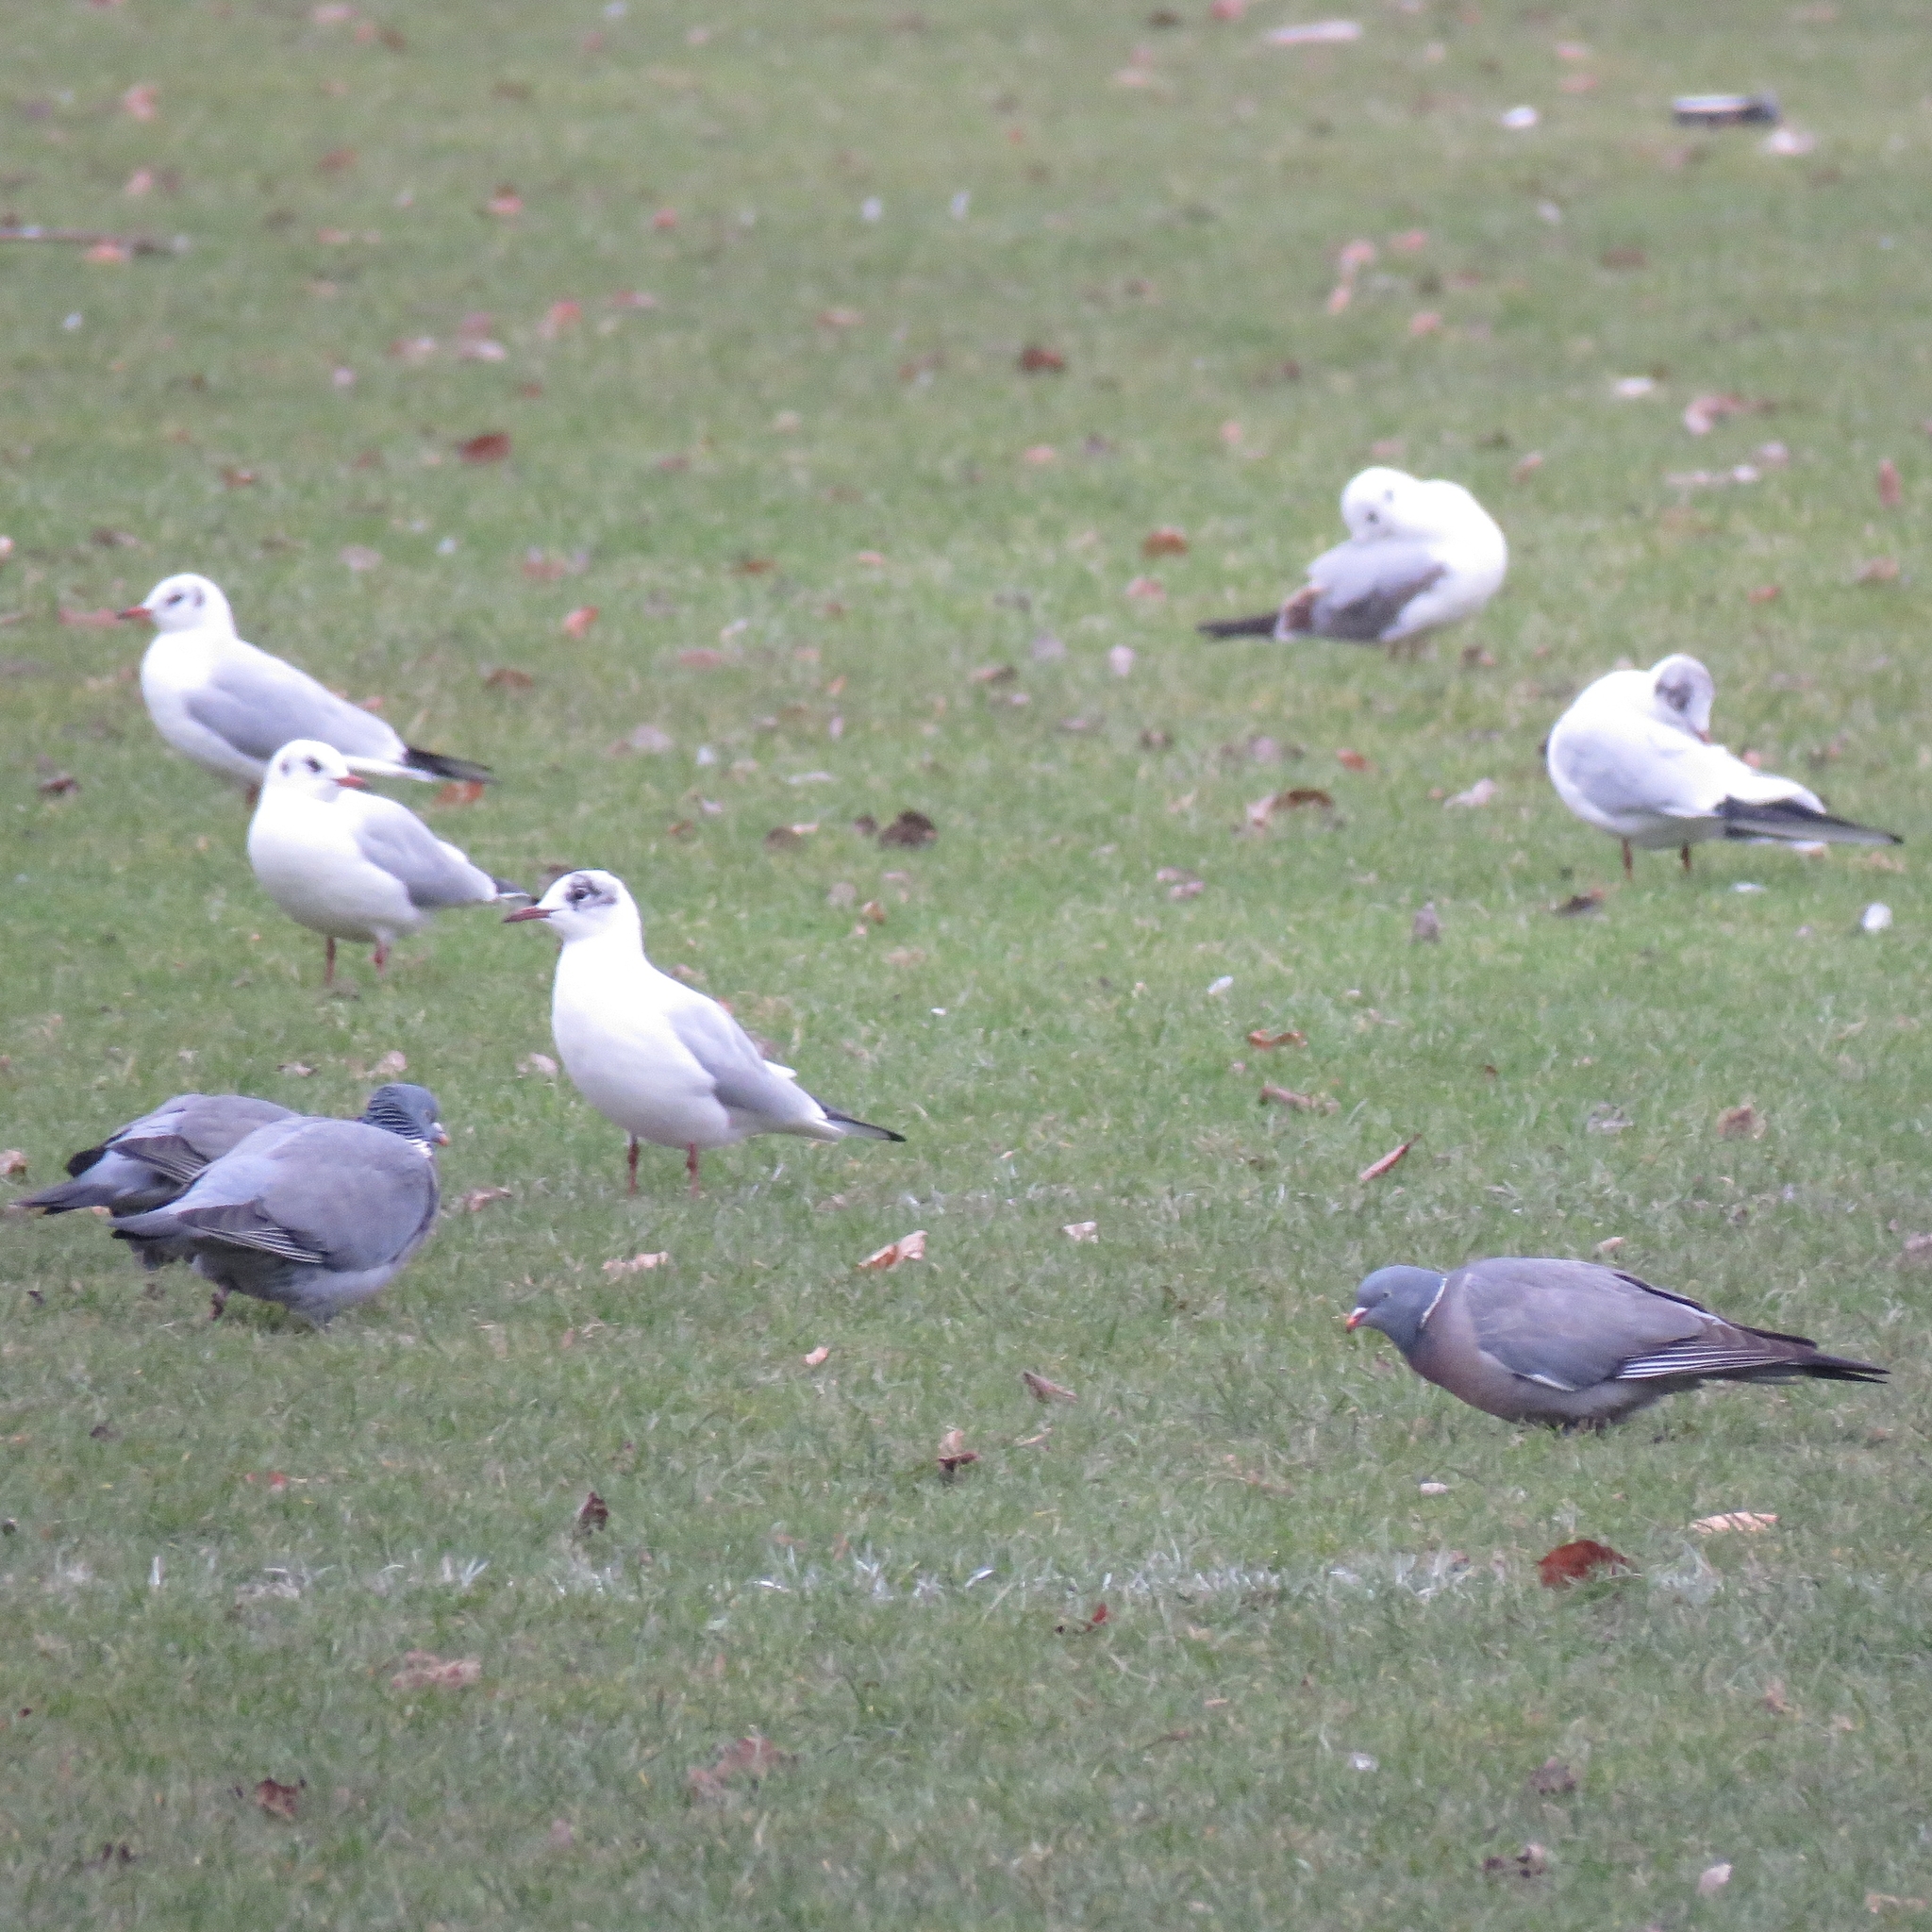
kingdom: Animalia
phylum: Chordata
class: Aves
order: Charadriiformes
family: Laridae
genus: Chroicocephalus
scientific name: Chroicocephalus ridibundus
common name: Black-headed gull
